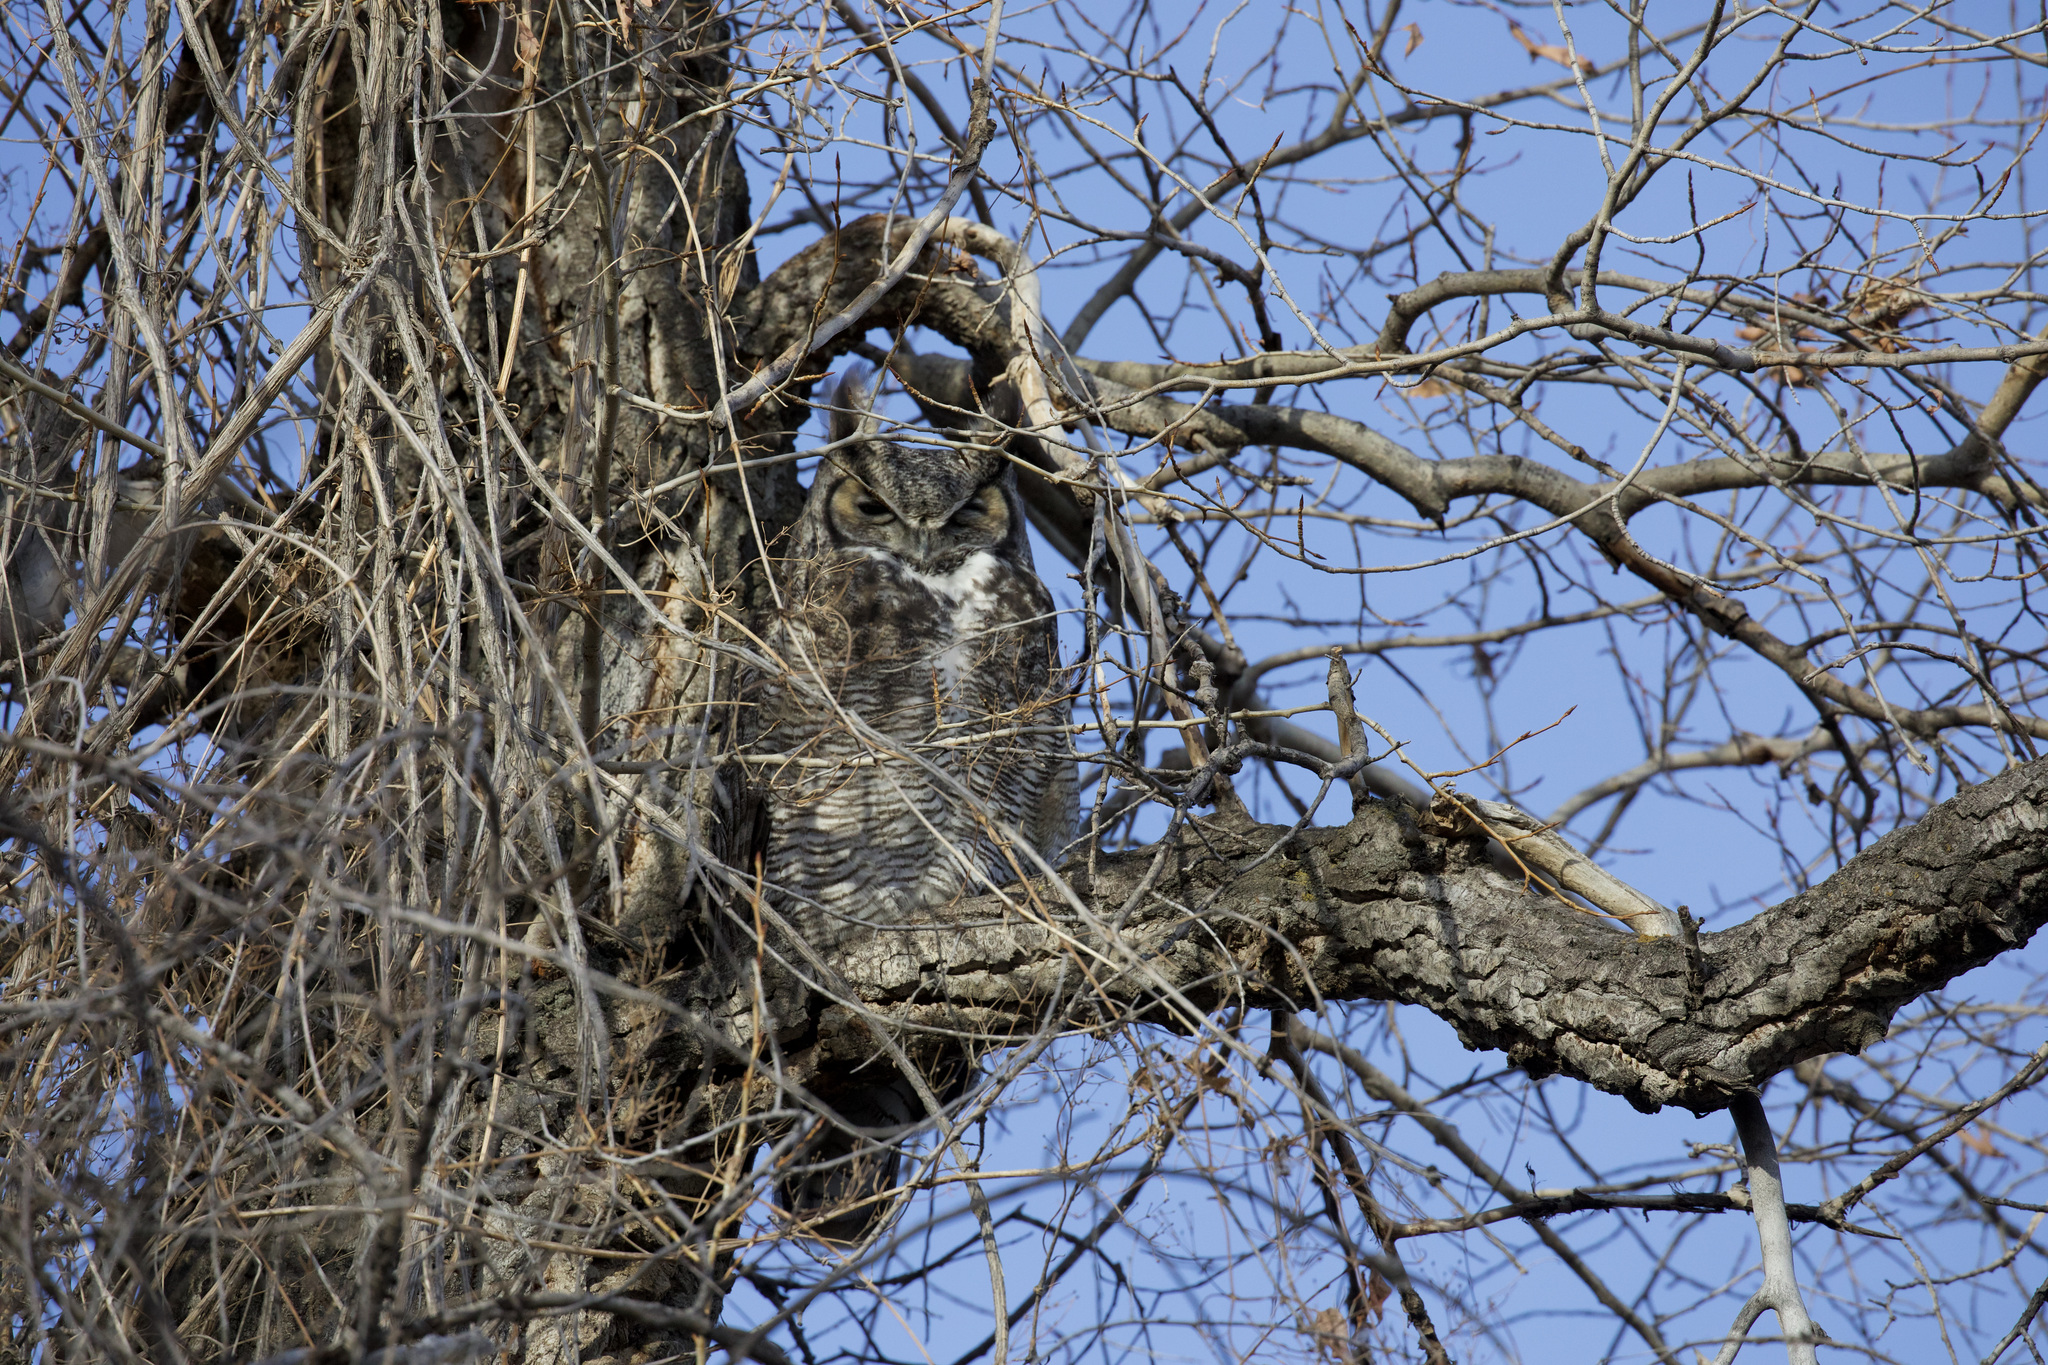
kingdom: Animalia
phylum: Chordata
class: Aves
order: Strigiformes
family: Strigidae
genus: Bubo
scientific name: Bubo virginianus
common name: Great horned owl
